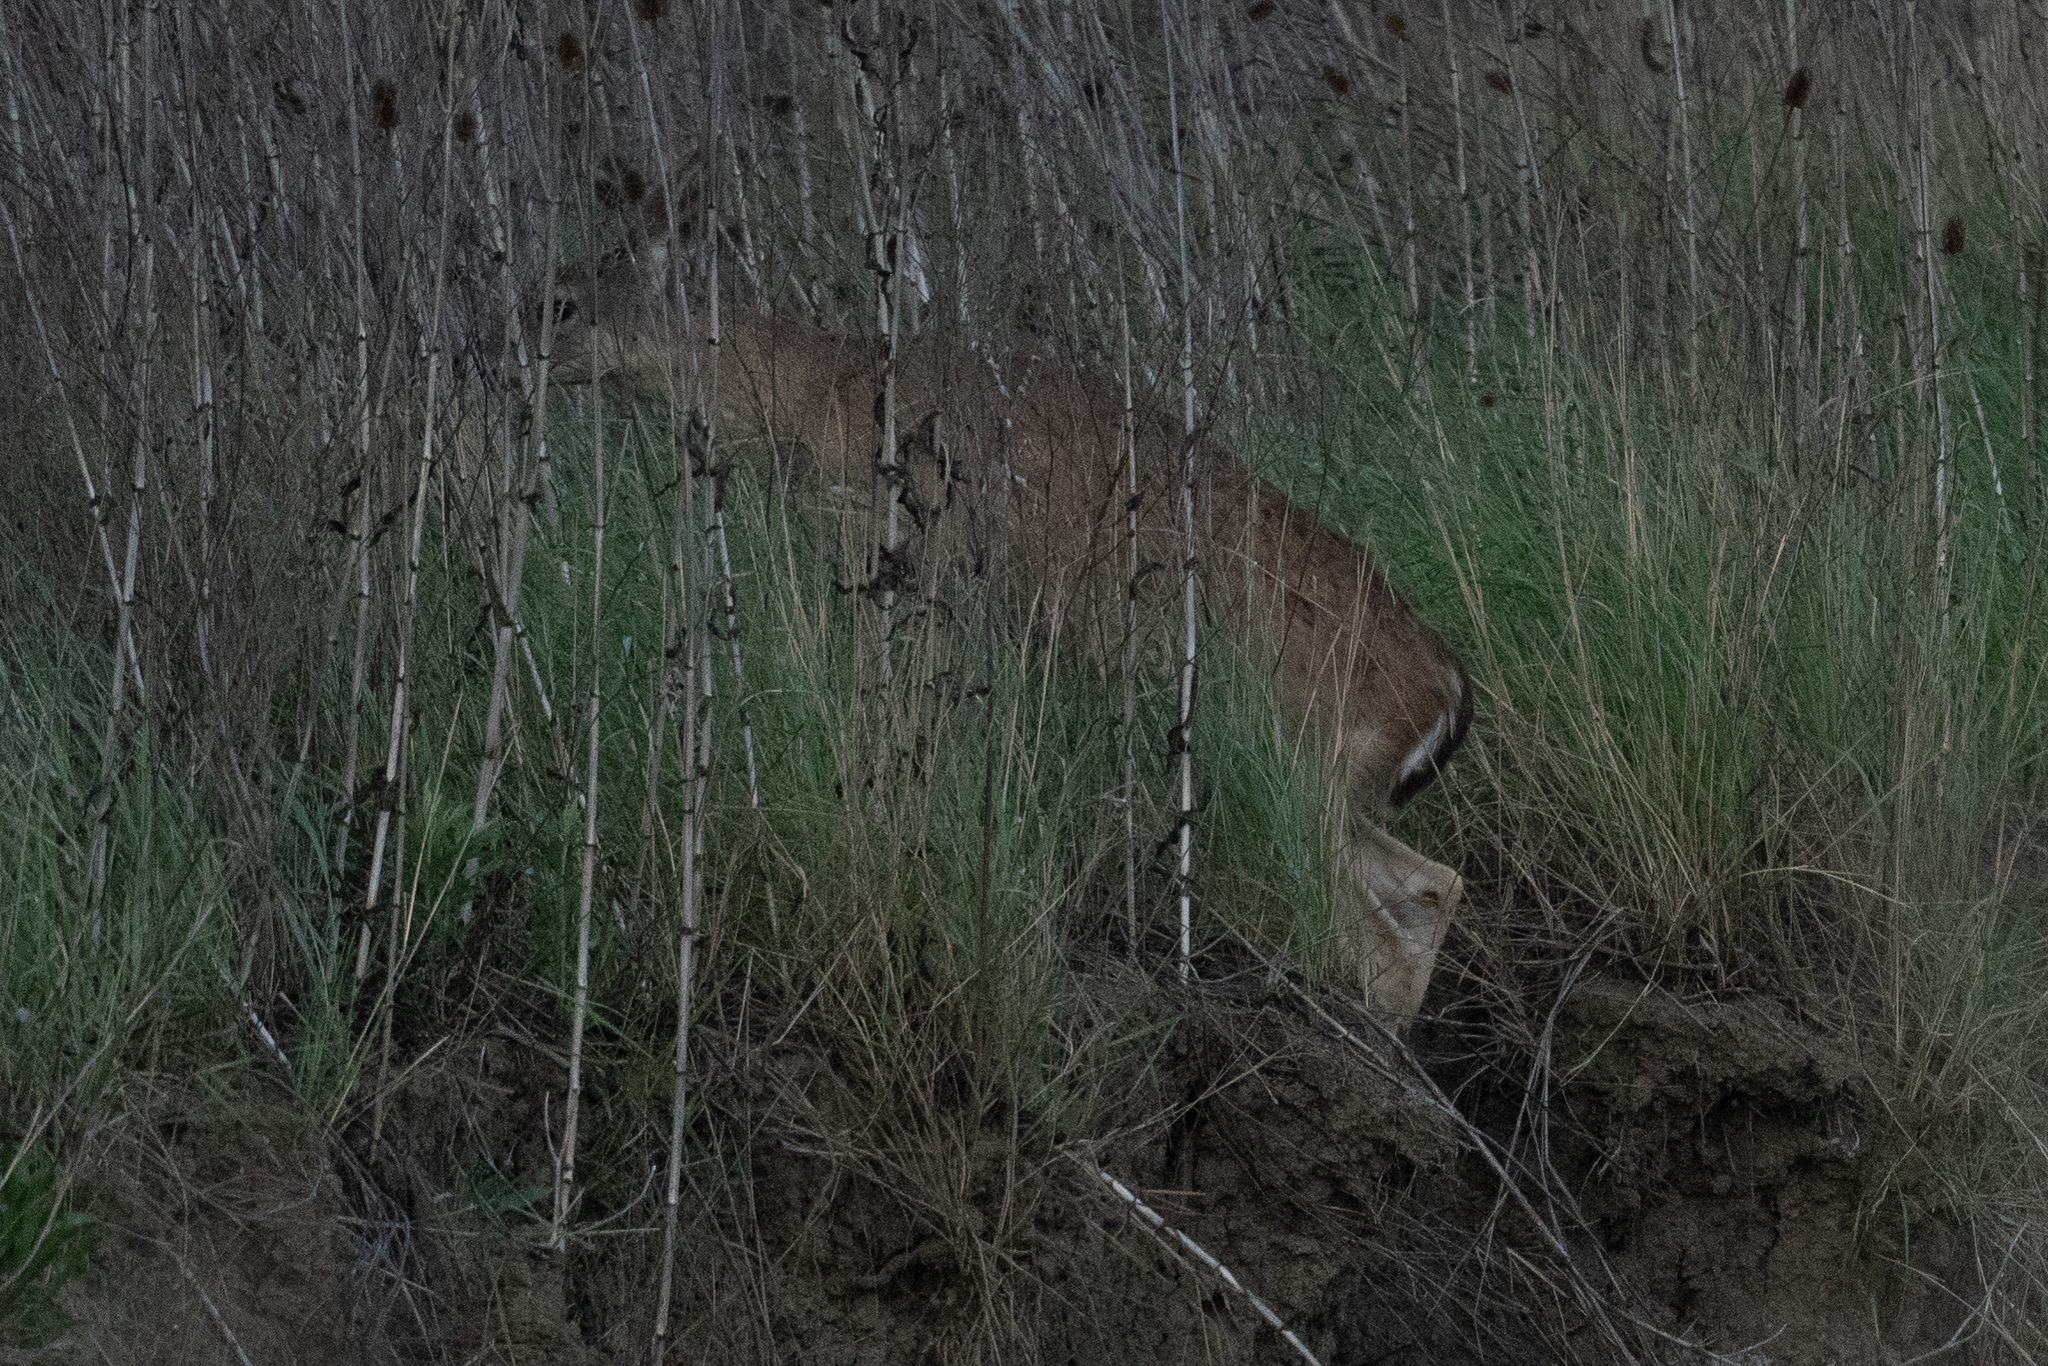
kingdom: Animalia
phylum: Chordata
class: Mammalia
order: Artiodactyla
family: Cervidae
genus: Odocoileus
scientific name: Odocoileus hemionus
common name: Mule deer
